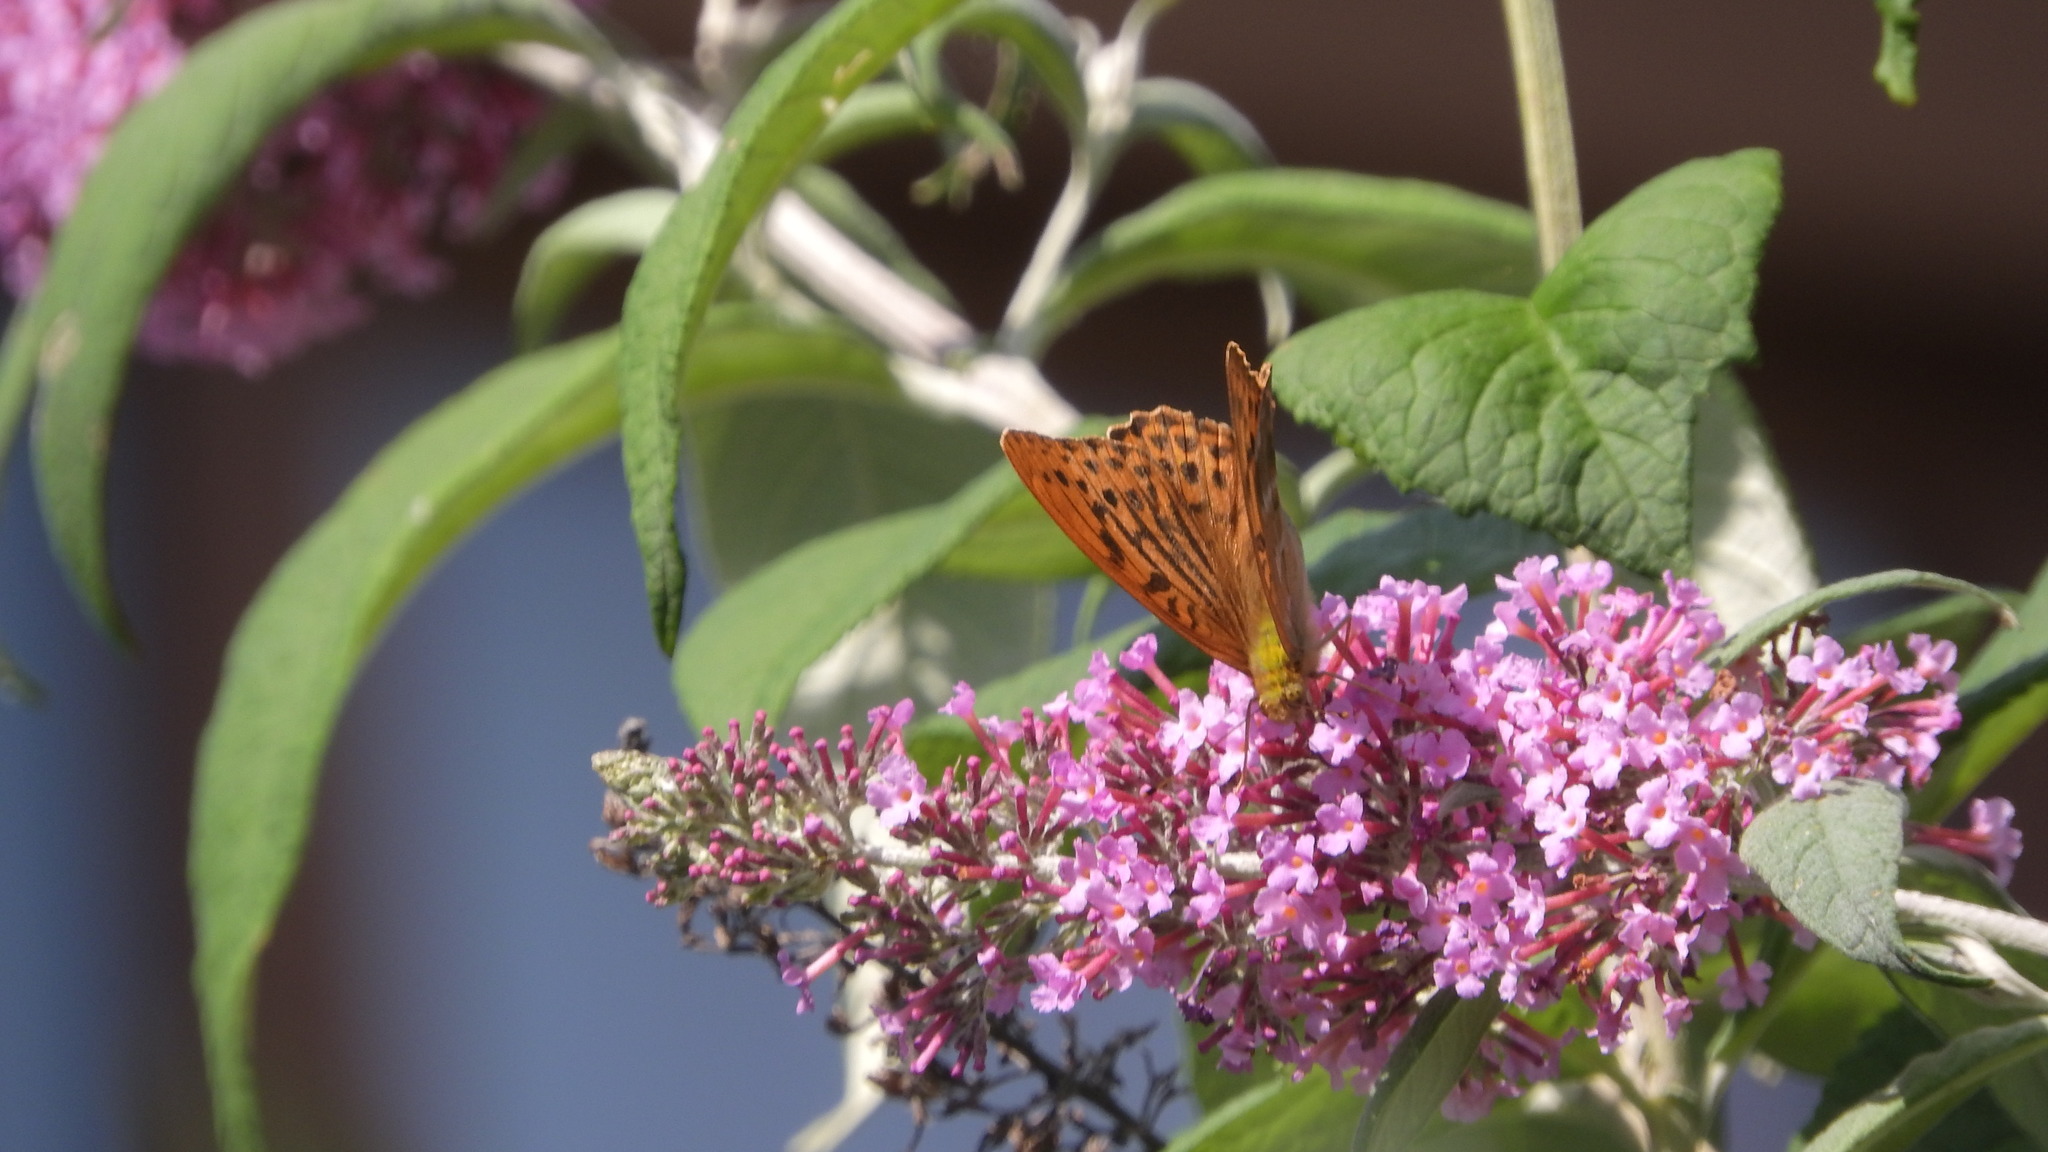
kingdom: Animalia
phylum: Arthropoda
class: Insecta
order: Lepidoptera
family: Nymphalidae
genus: Argynnis
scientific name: Argynnis paphia
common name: Silver-washed fritillary
